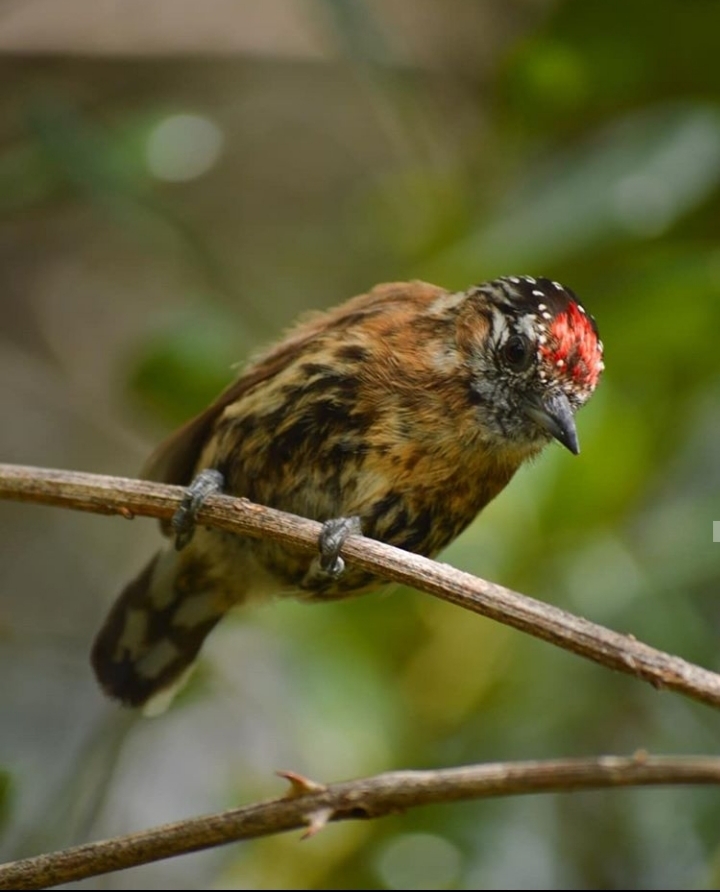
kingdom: Animalia
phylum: Chordata
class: Aves
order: Piciformes
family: Picidae
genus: Picumnus
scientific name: Picumnus nebulosus
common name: Mottled piculet
